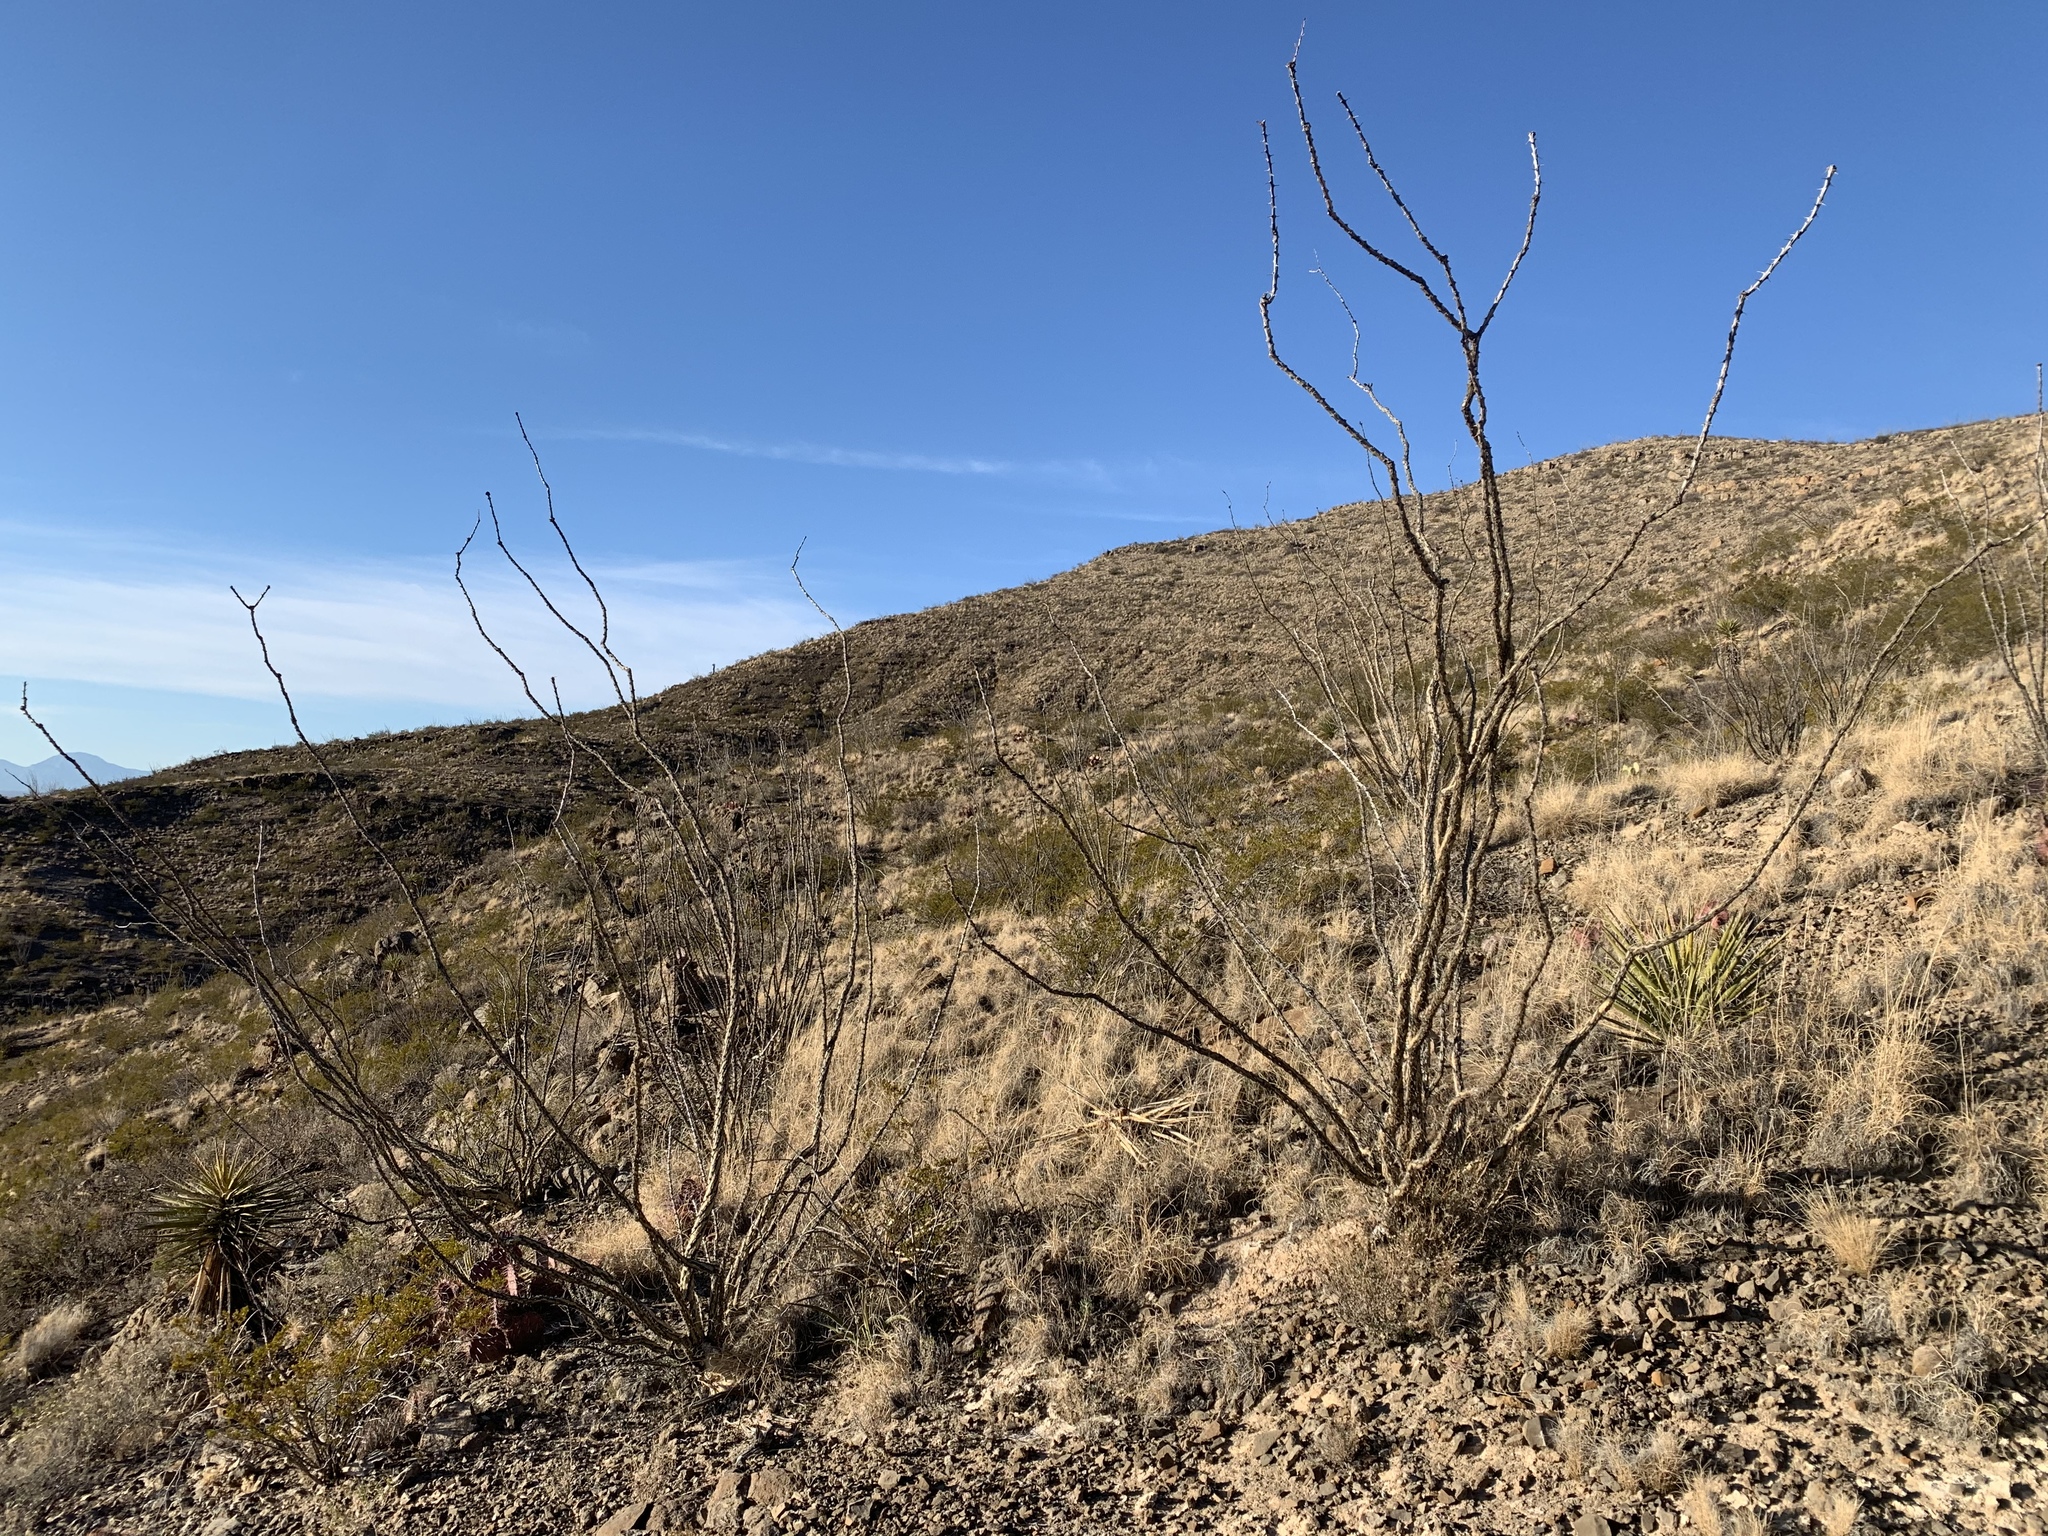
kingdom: Plantae
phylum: Tracheophyta
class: Magnoliopsida
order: Ericales
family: Fouquieriaceae
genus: Fouquieria
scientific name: Fouquieria splendens
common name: Vine-cactus
